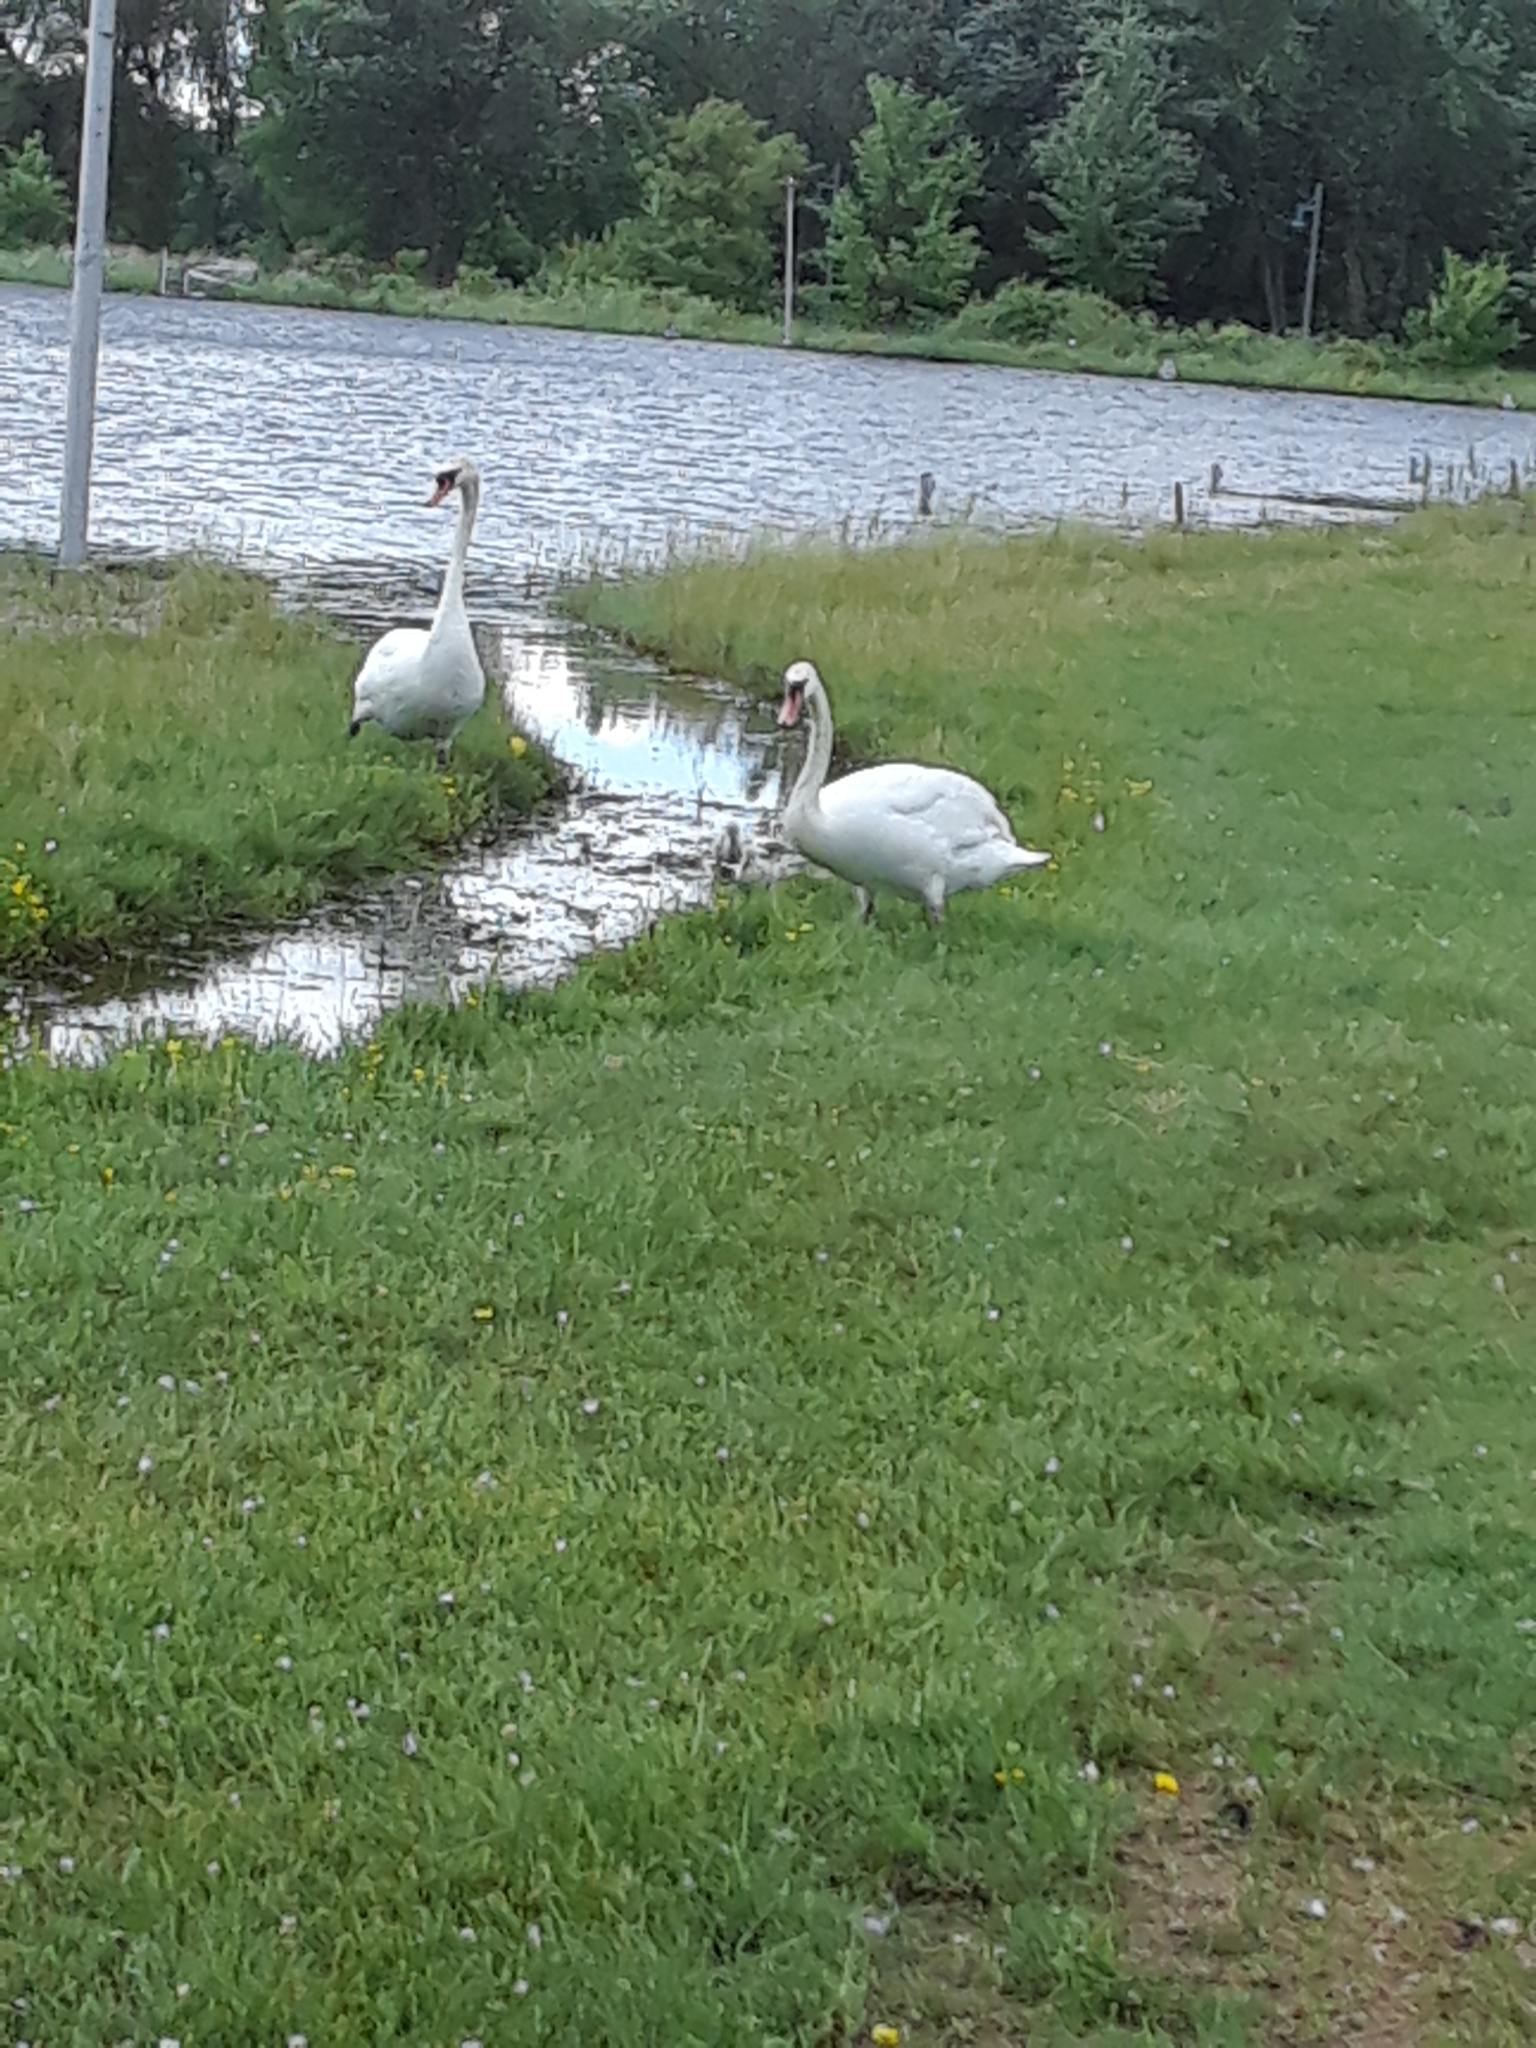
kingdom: Animalia
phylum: Chordata
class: Aves
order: Anseriformes
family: Anatidae
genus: Cygnus
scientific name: Cygnus olor
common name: Mute swan
